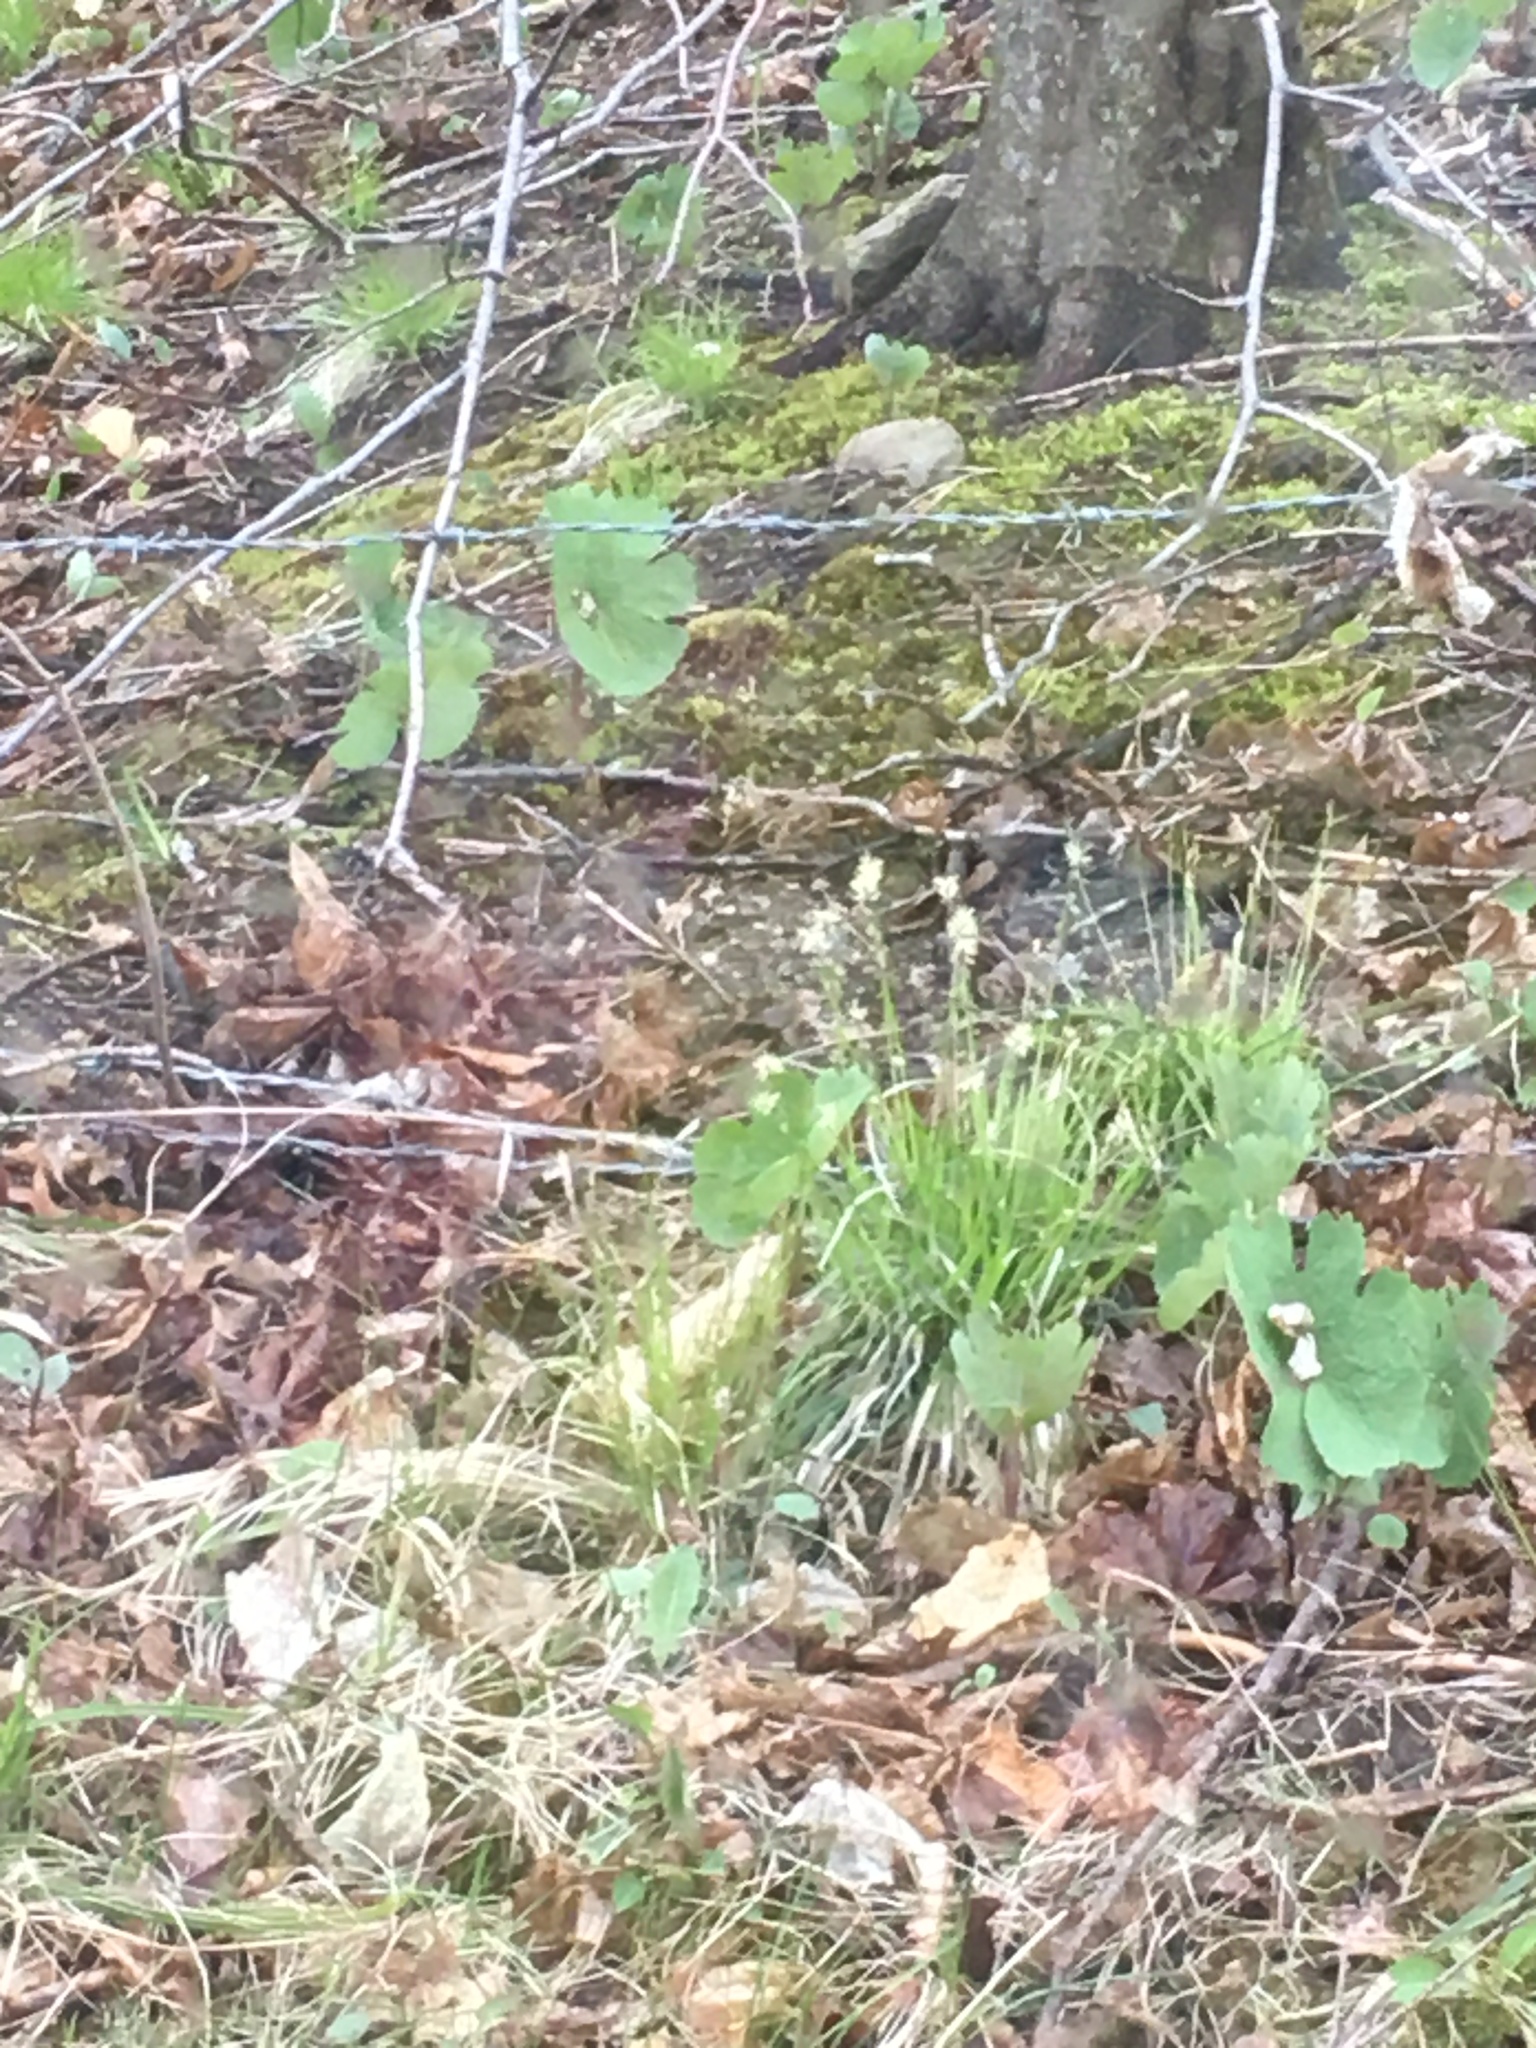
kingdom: Plantae
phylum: Tracheophyta
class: Magnoliopsida
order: Ranunculales
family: Papaveraceae
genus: Sanguinaria
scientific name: Sanguinaria canadensis
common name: Bloodroot
